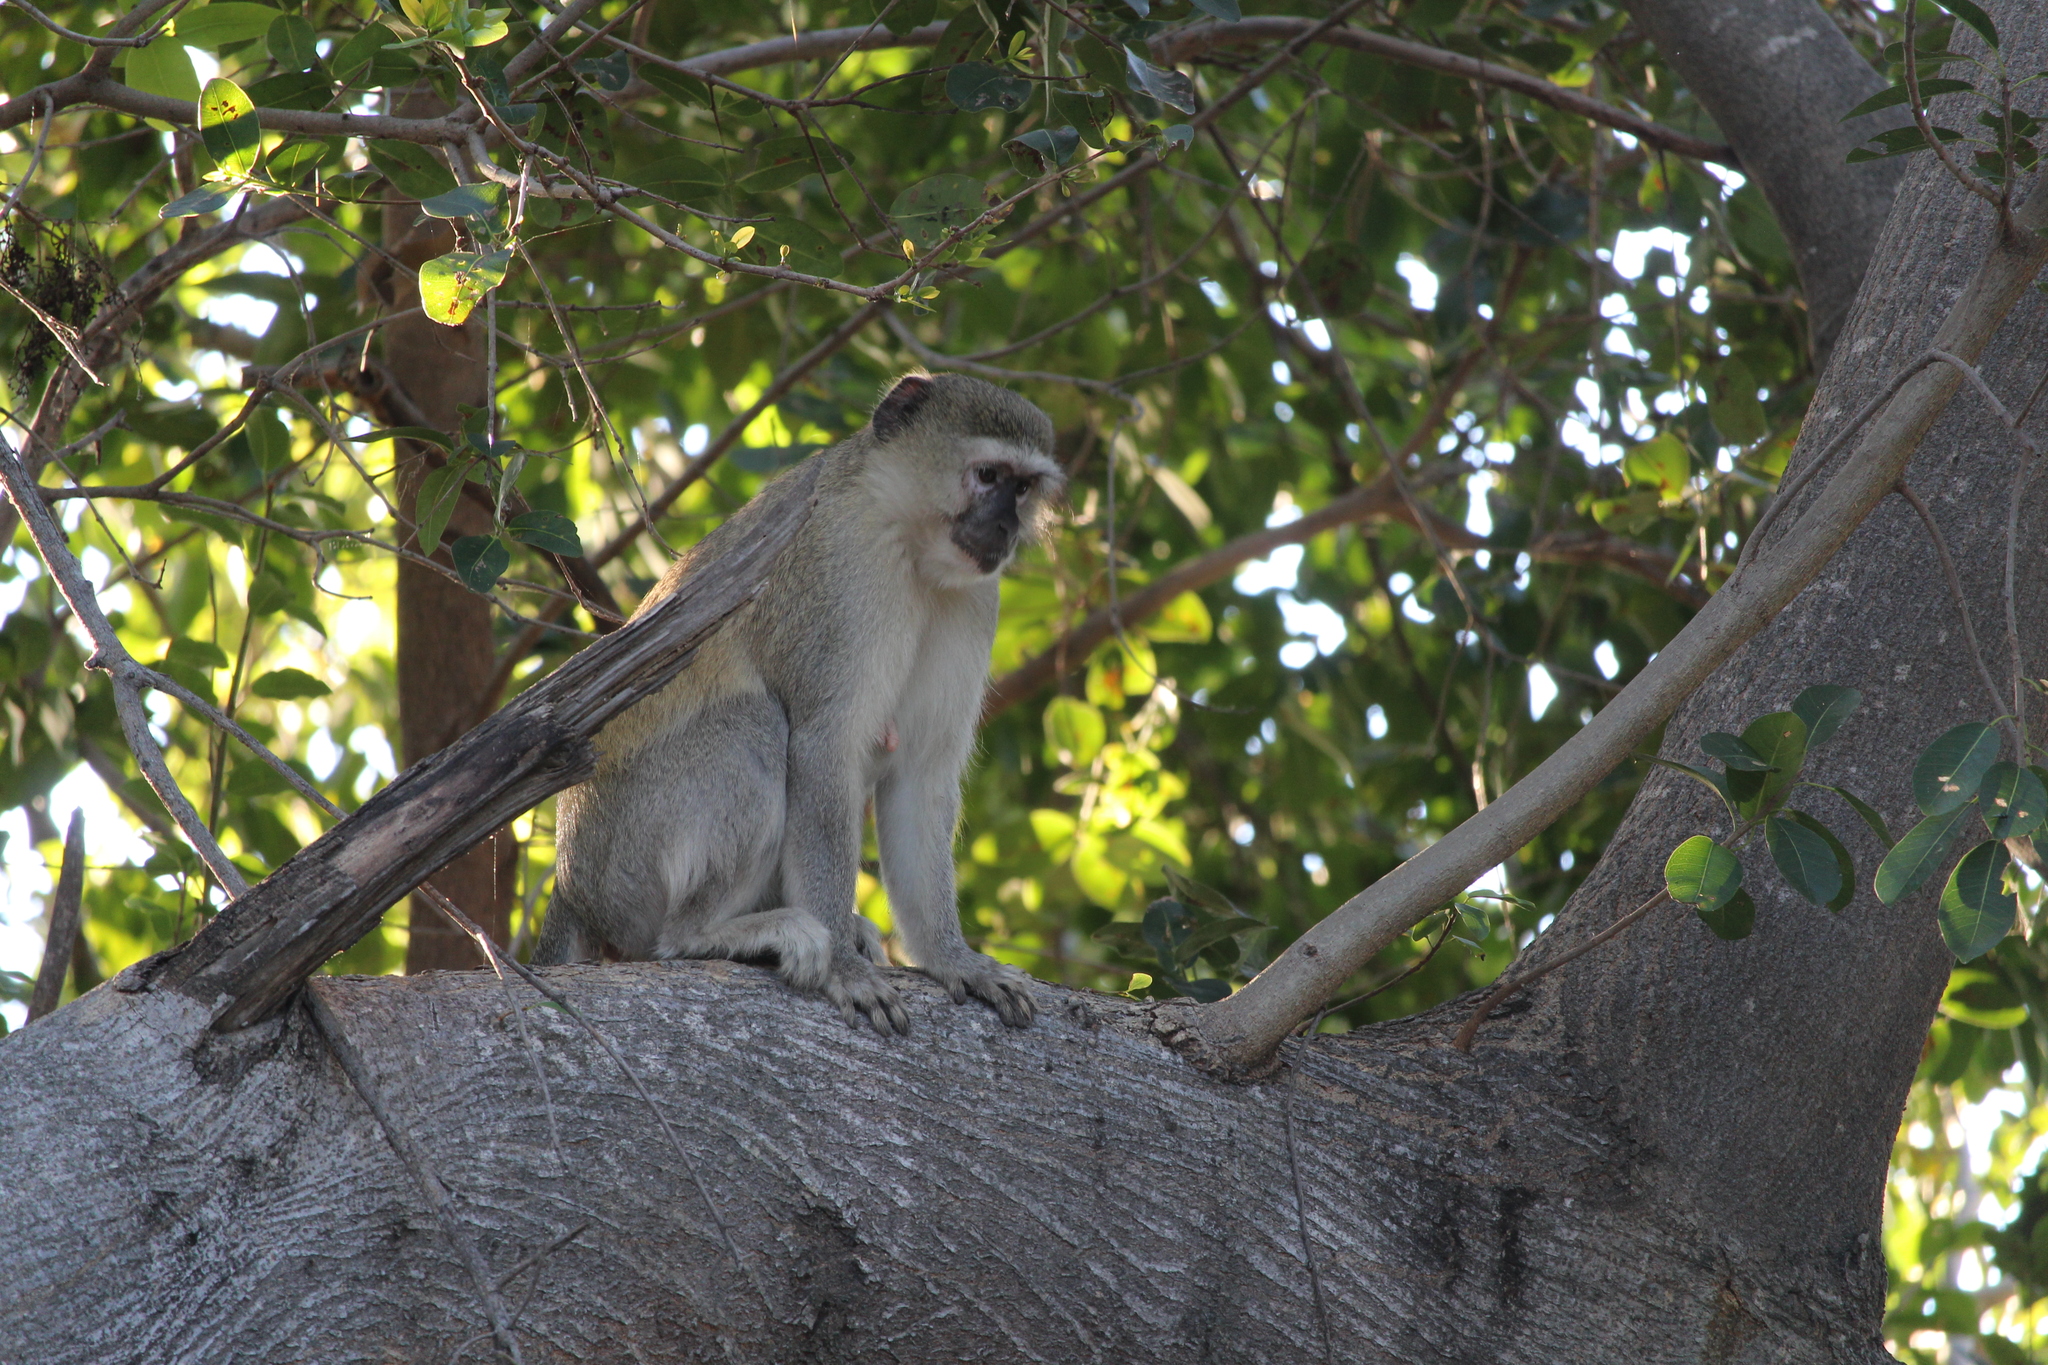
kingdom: Animalia
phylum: Chordata
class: Mammalia
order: Primates
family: Cercopithecidae
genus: Chlorocebus
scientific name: Chlorocebus pygerythrus
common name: Vervet monkey
